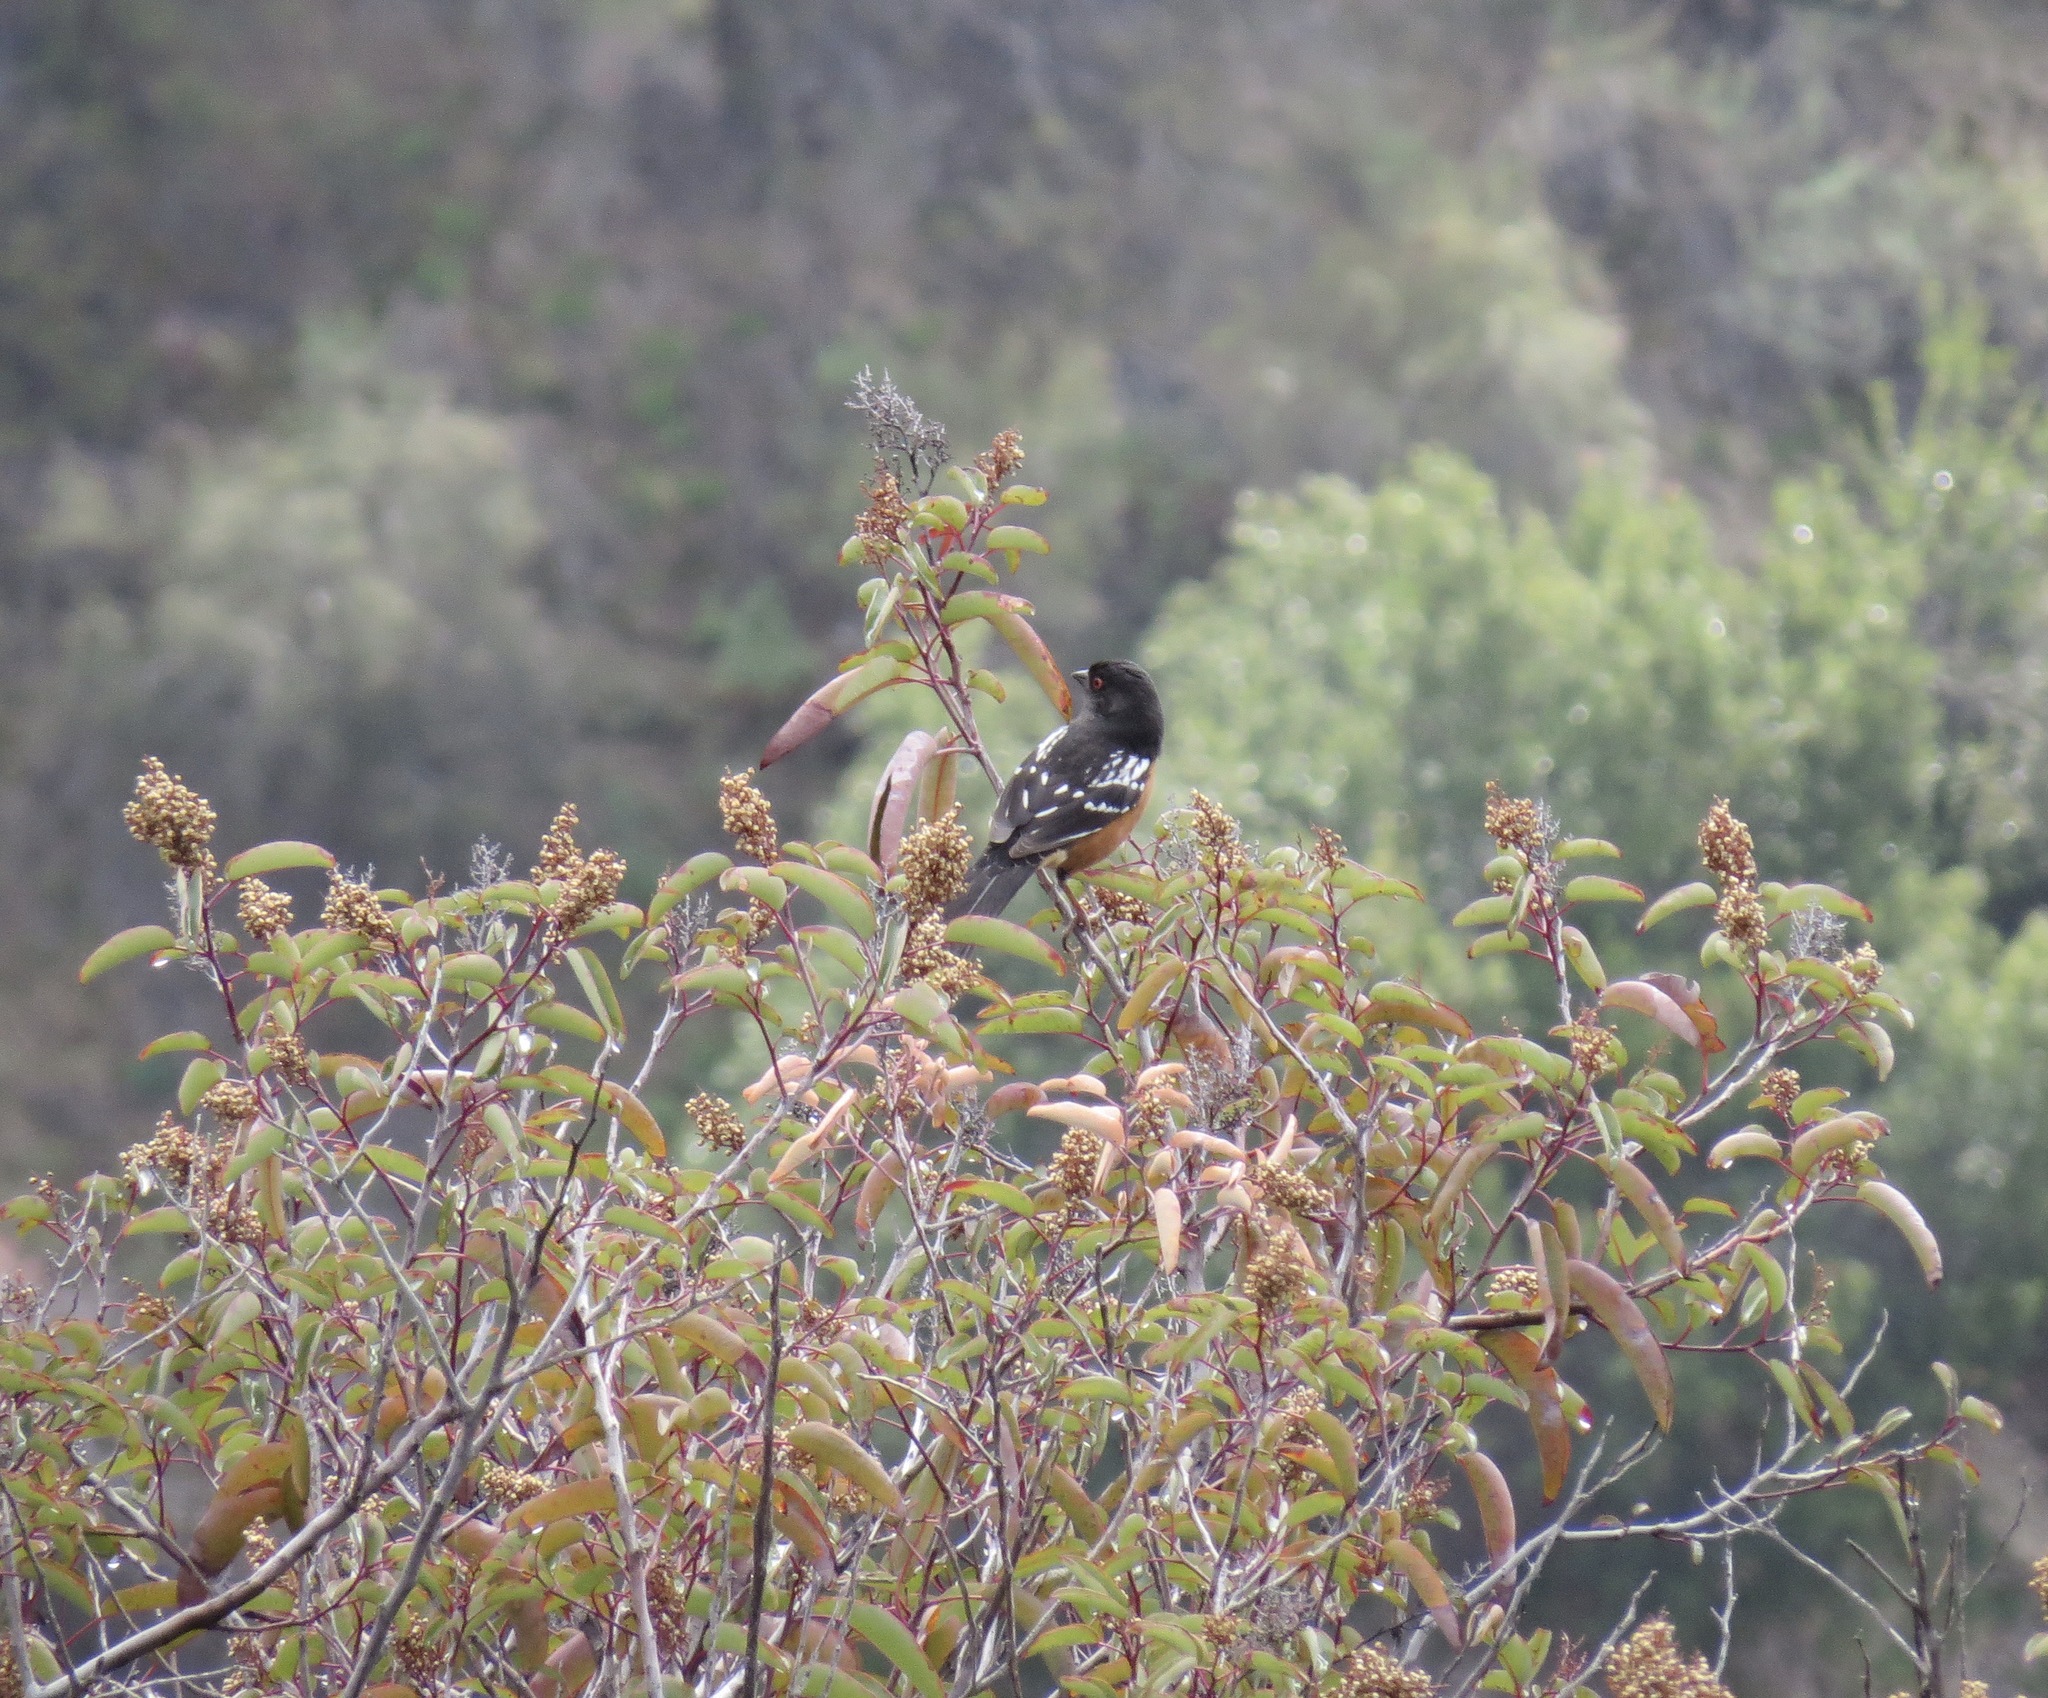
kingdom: Animalia
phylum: Chordata
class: Aves
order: Passeriformes
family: Passerellidae
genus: Pipilo
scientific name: Pipilo maculatus
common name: Spotted towhee
